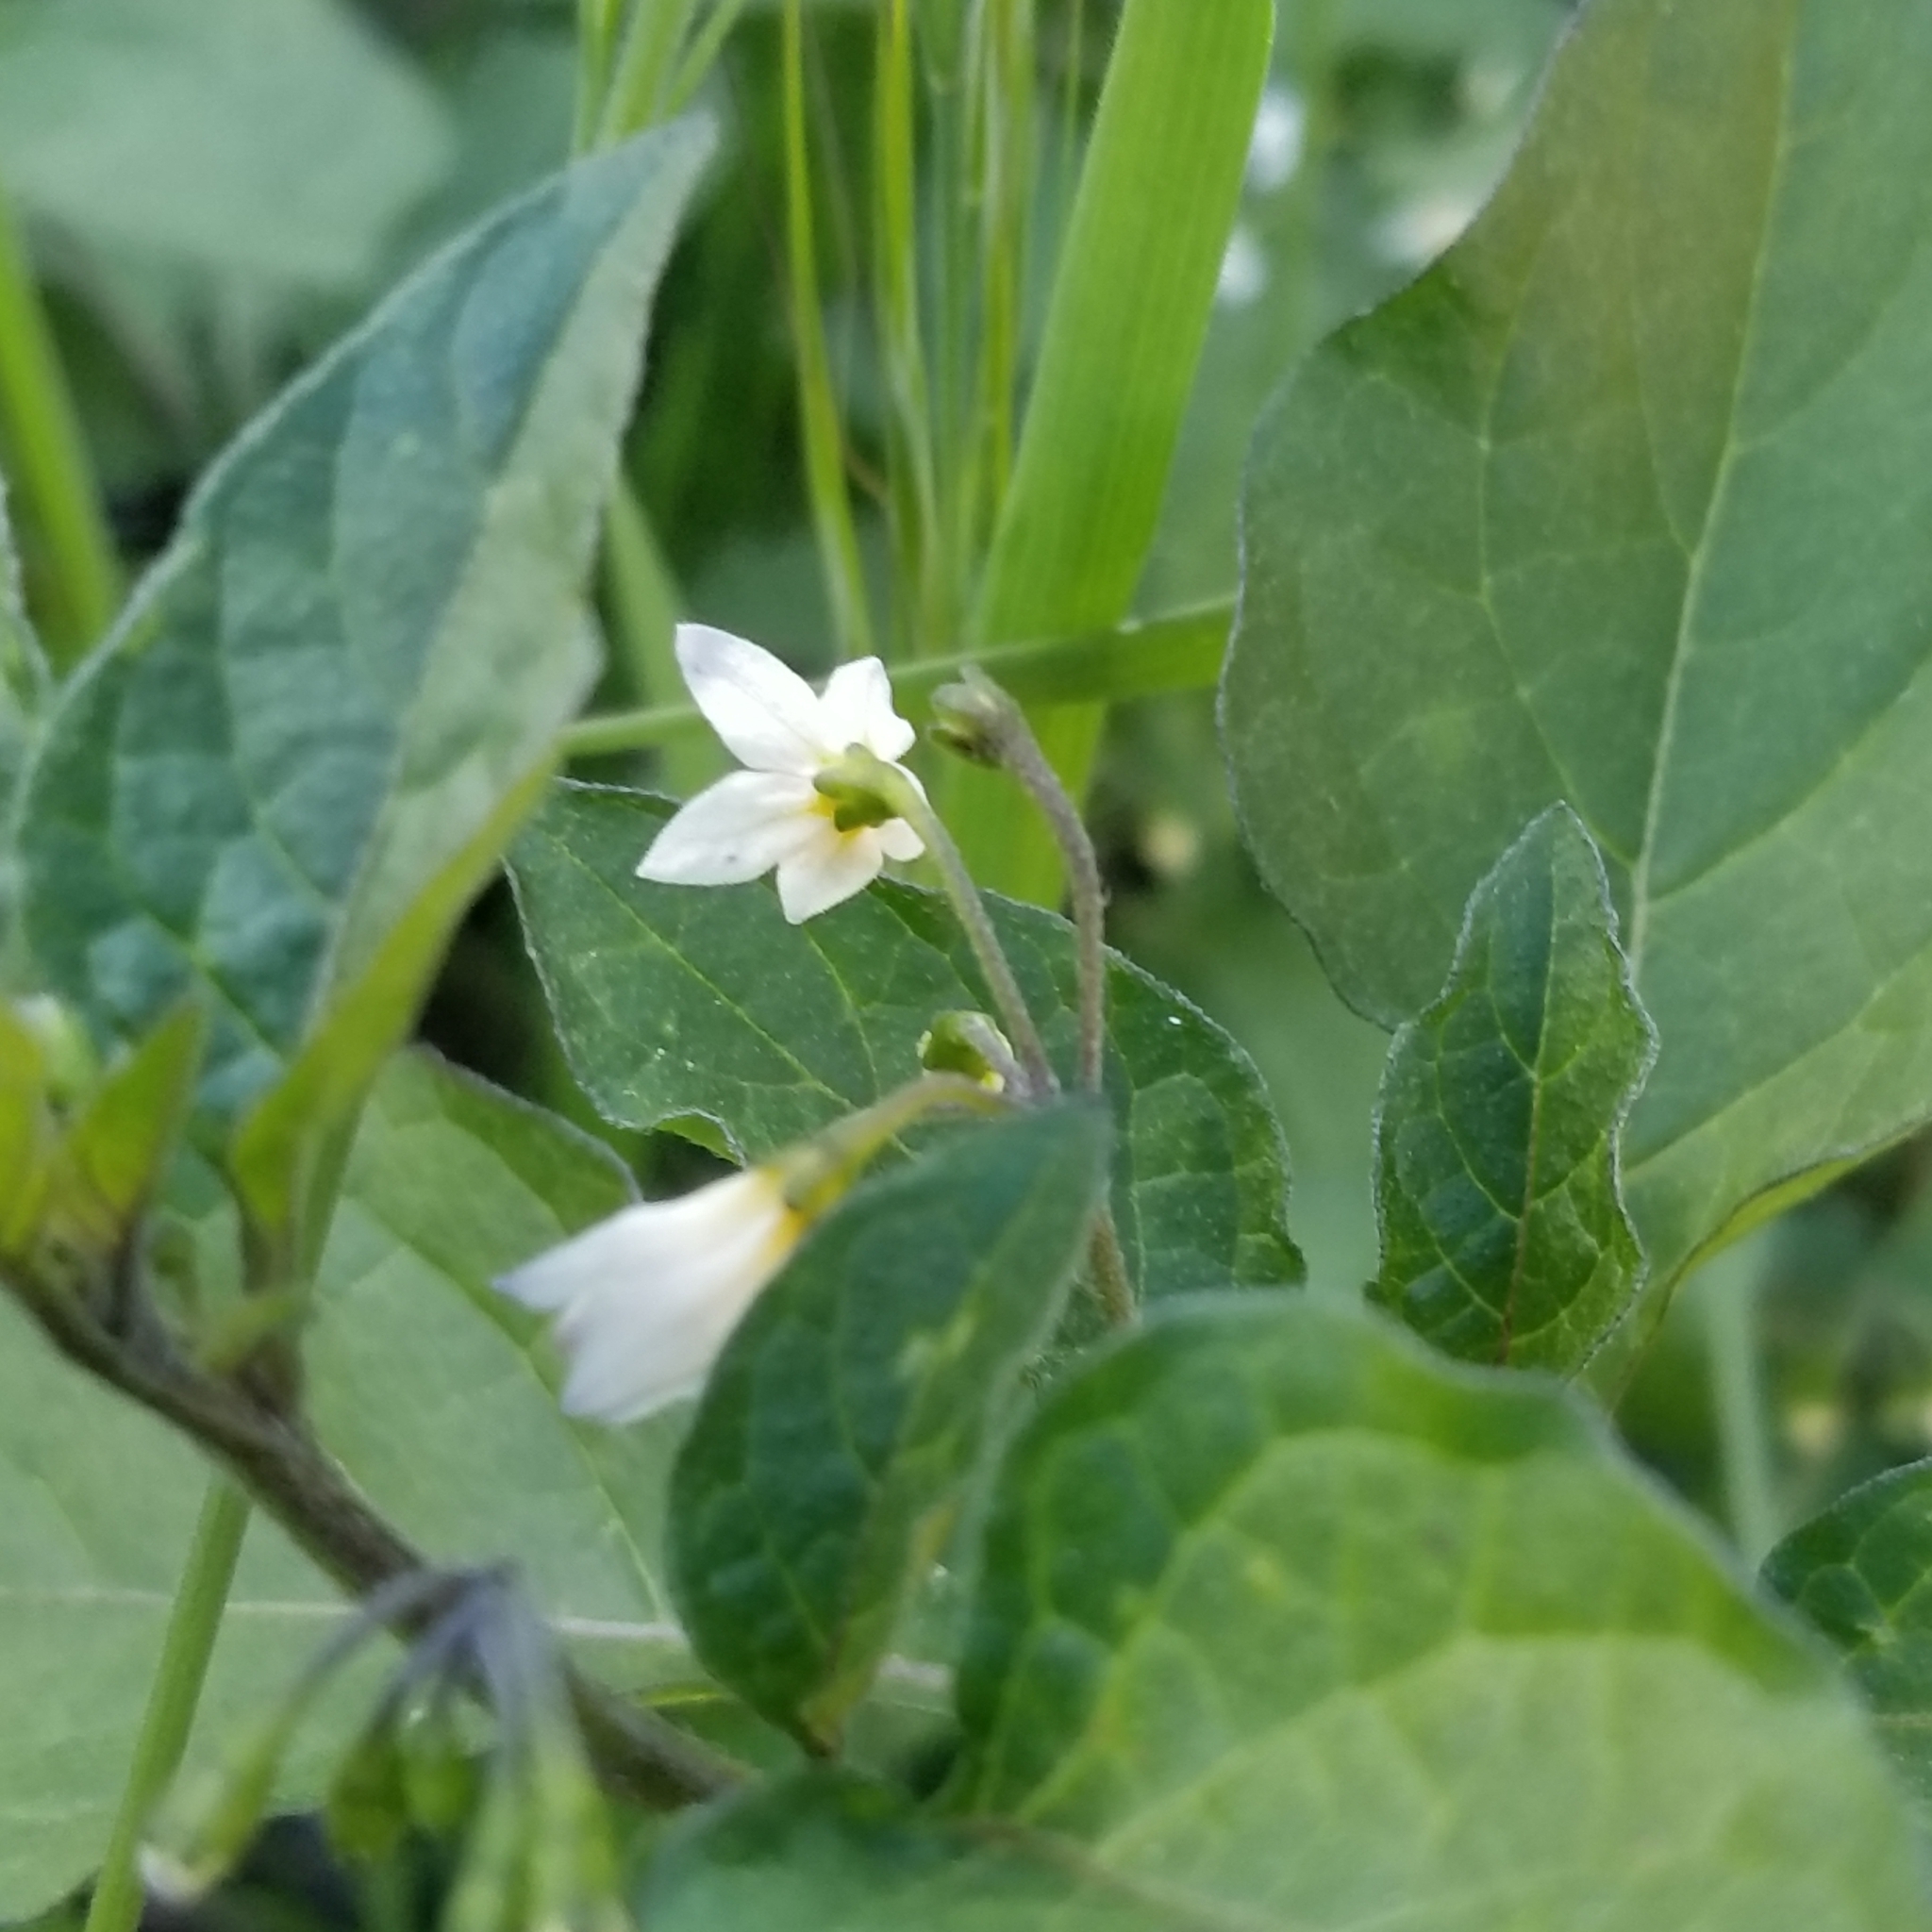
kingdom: Plantae
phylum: Tracheophyta
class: Magnoliopsida
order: Solanales
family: Solanaceae
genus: Solanum
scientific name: Solanum nigrum
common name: Black nightshade
